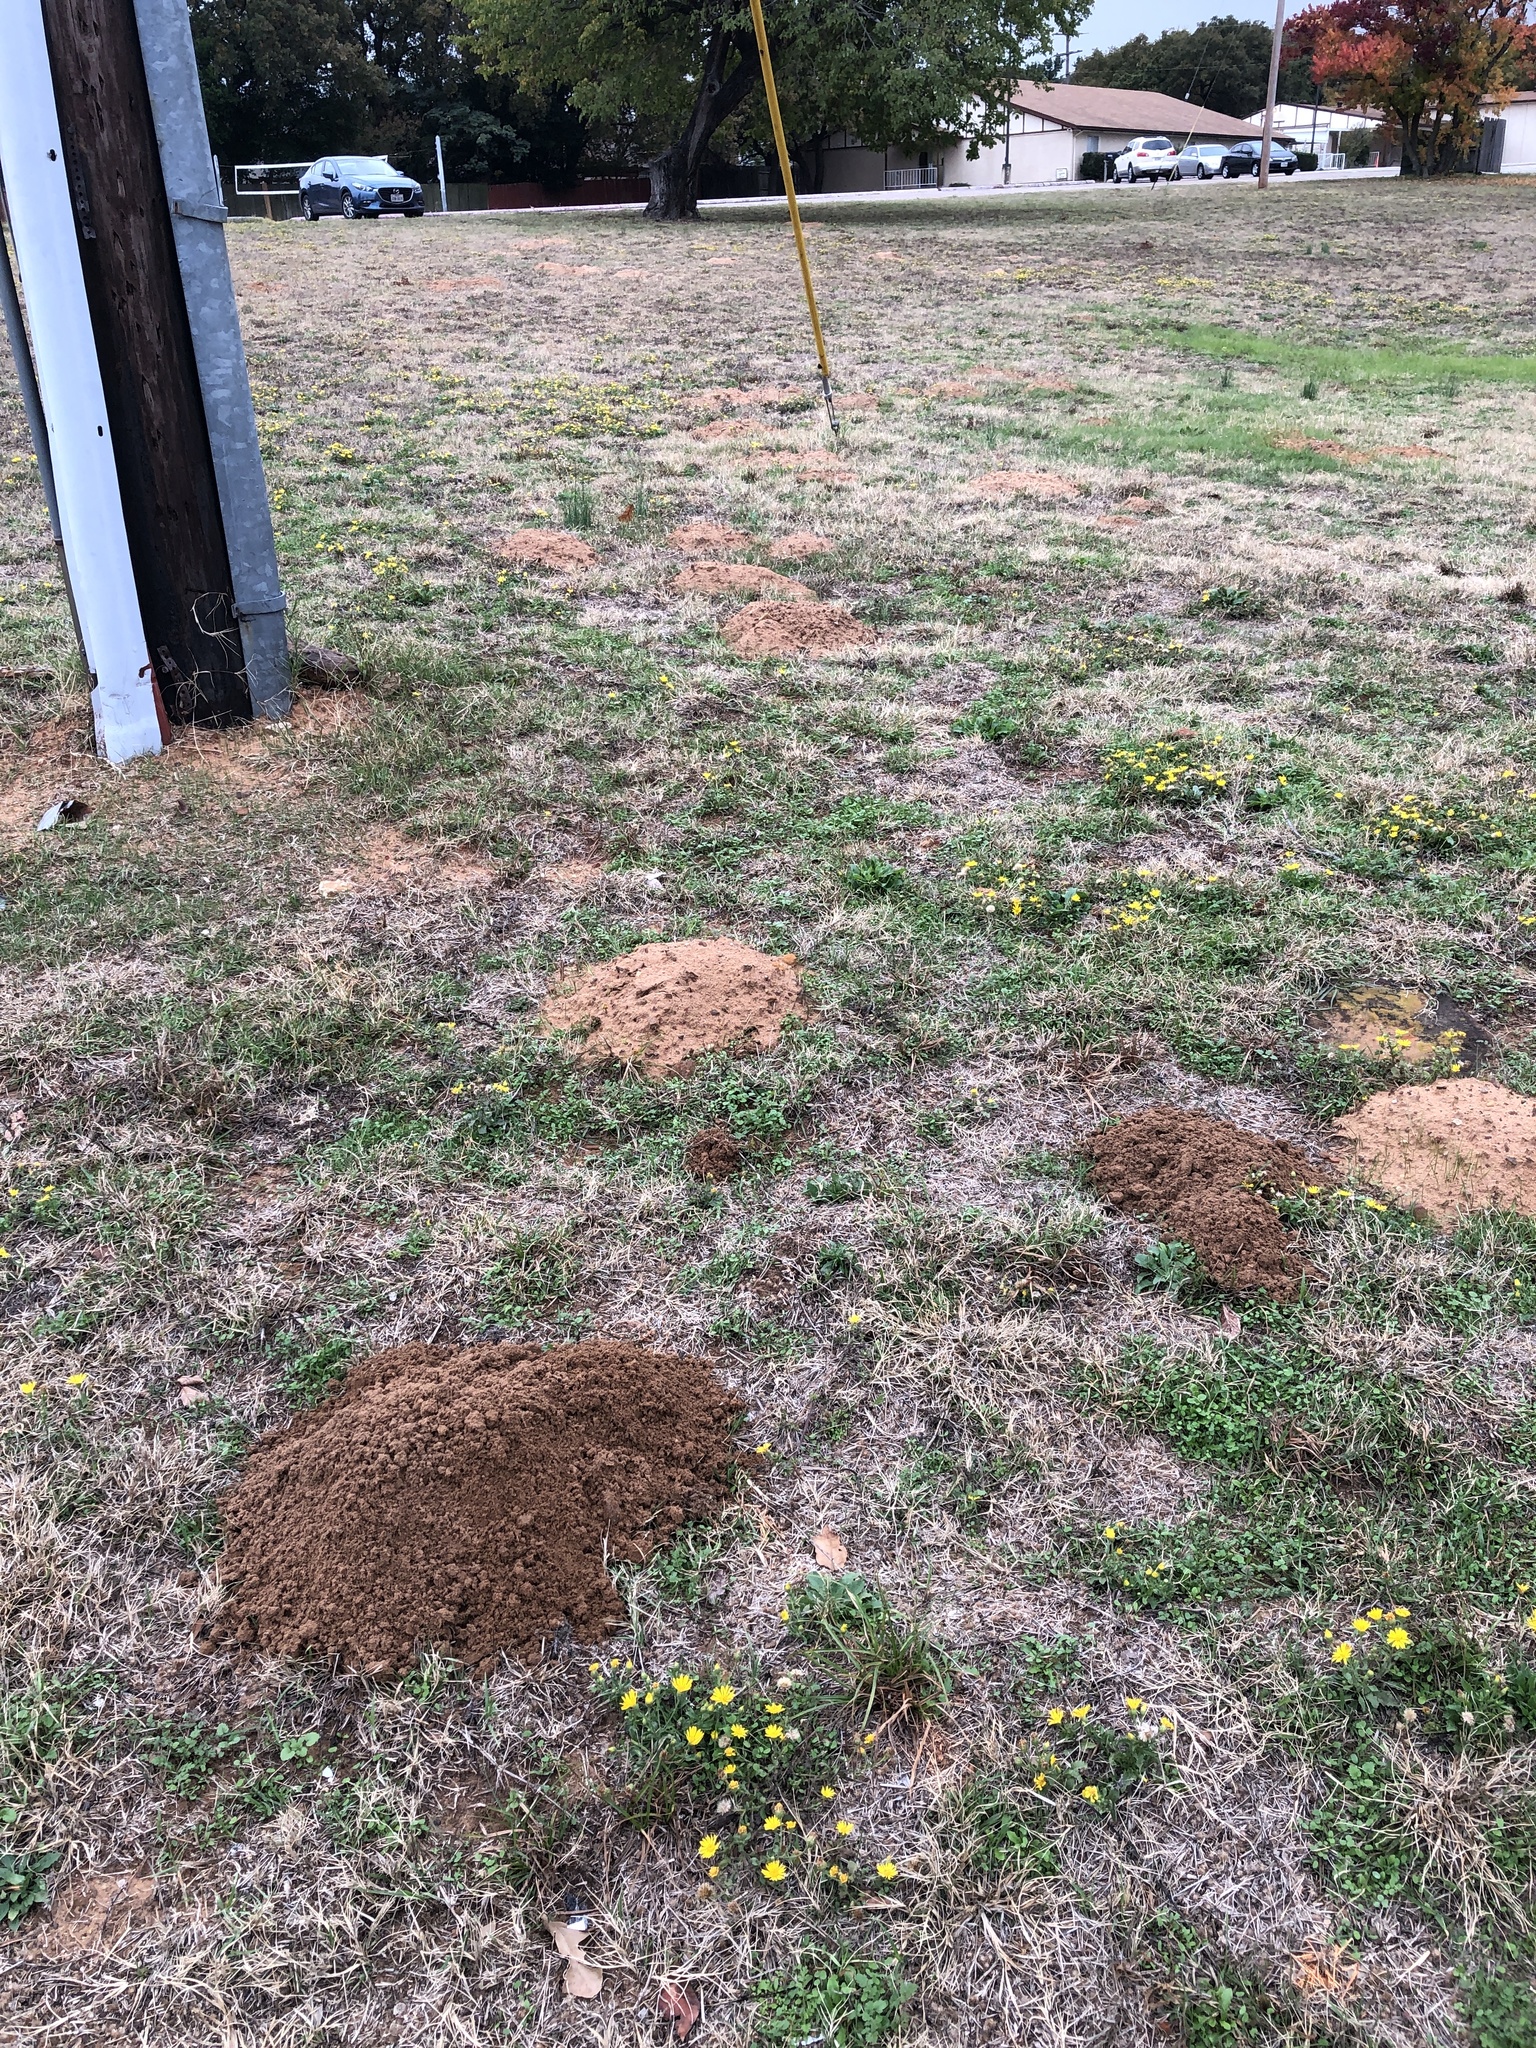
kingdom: Animalia
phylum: Chordata
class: Mammalia
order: Rodentia
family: Geomyidae
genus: Geomys
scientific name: Geomys bursarius
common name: Plains pocket gopher
